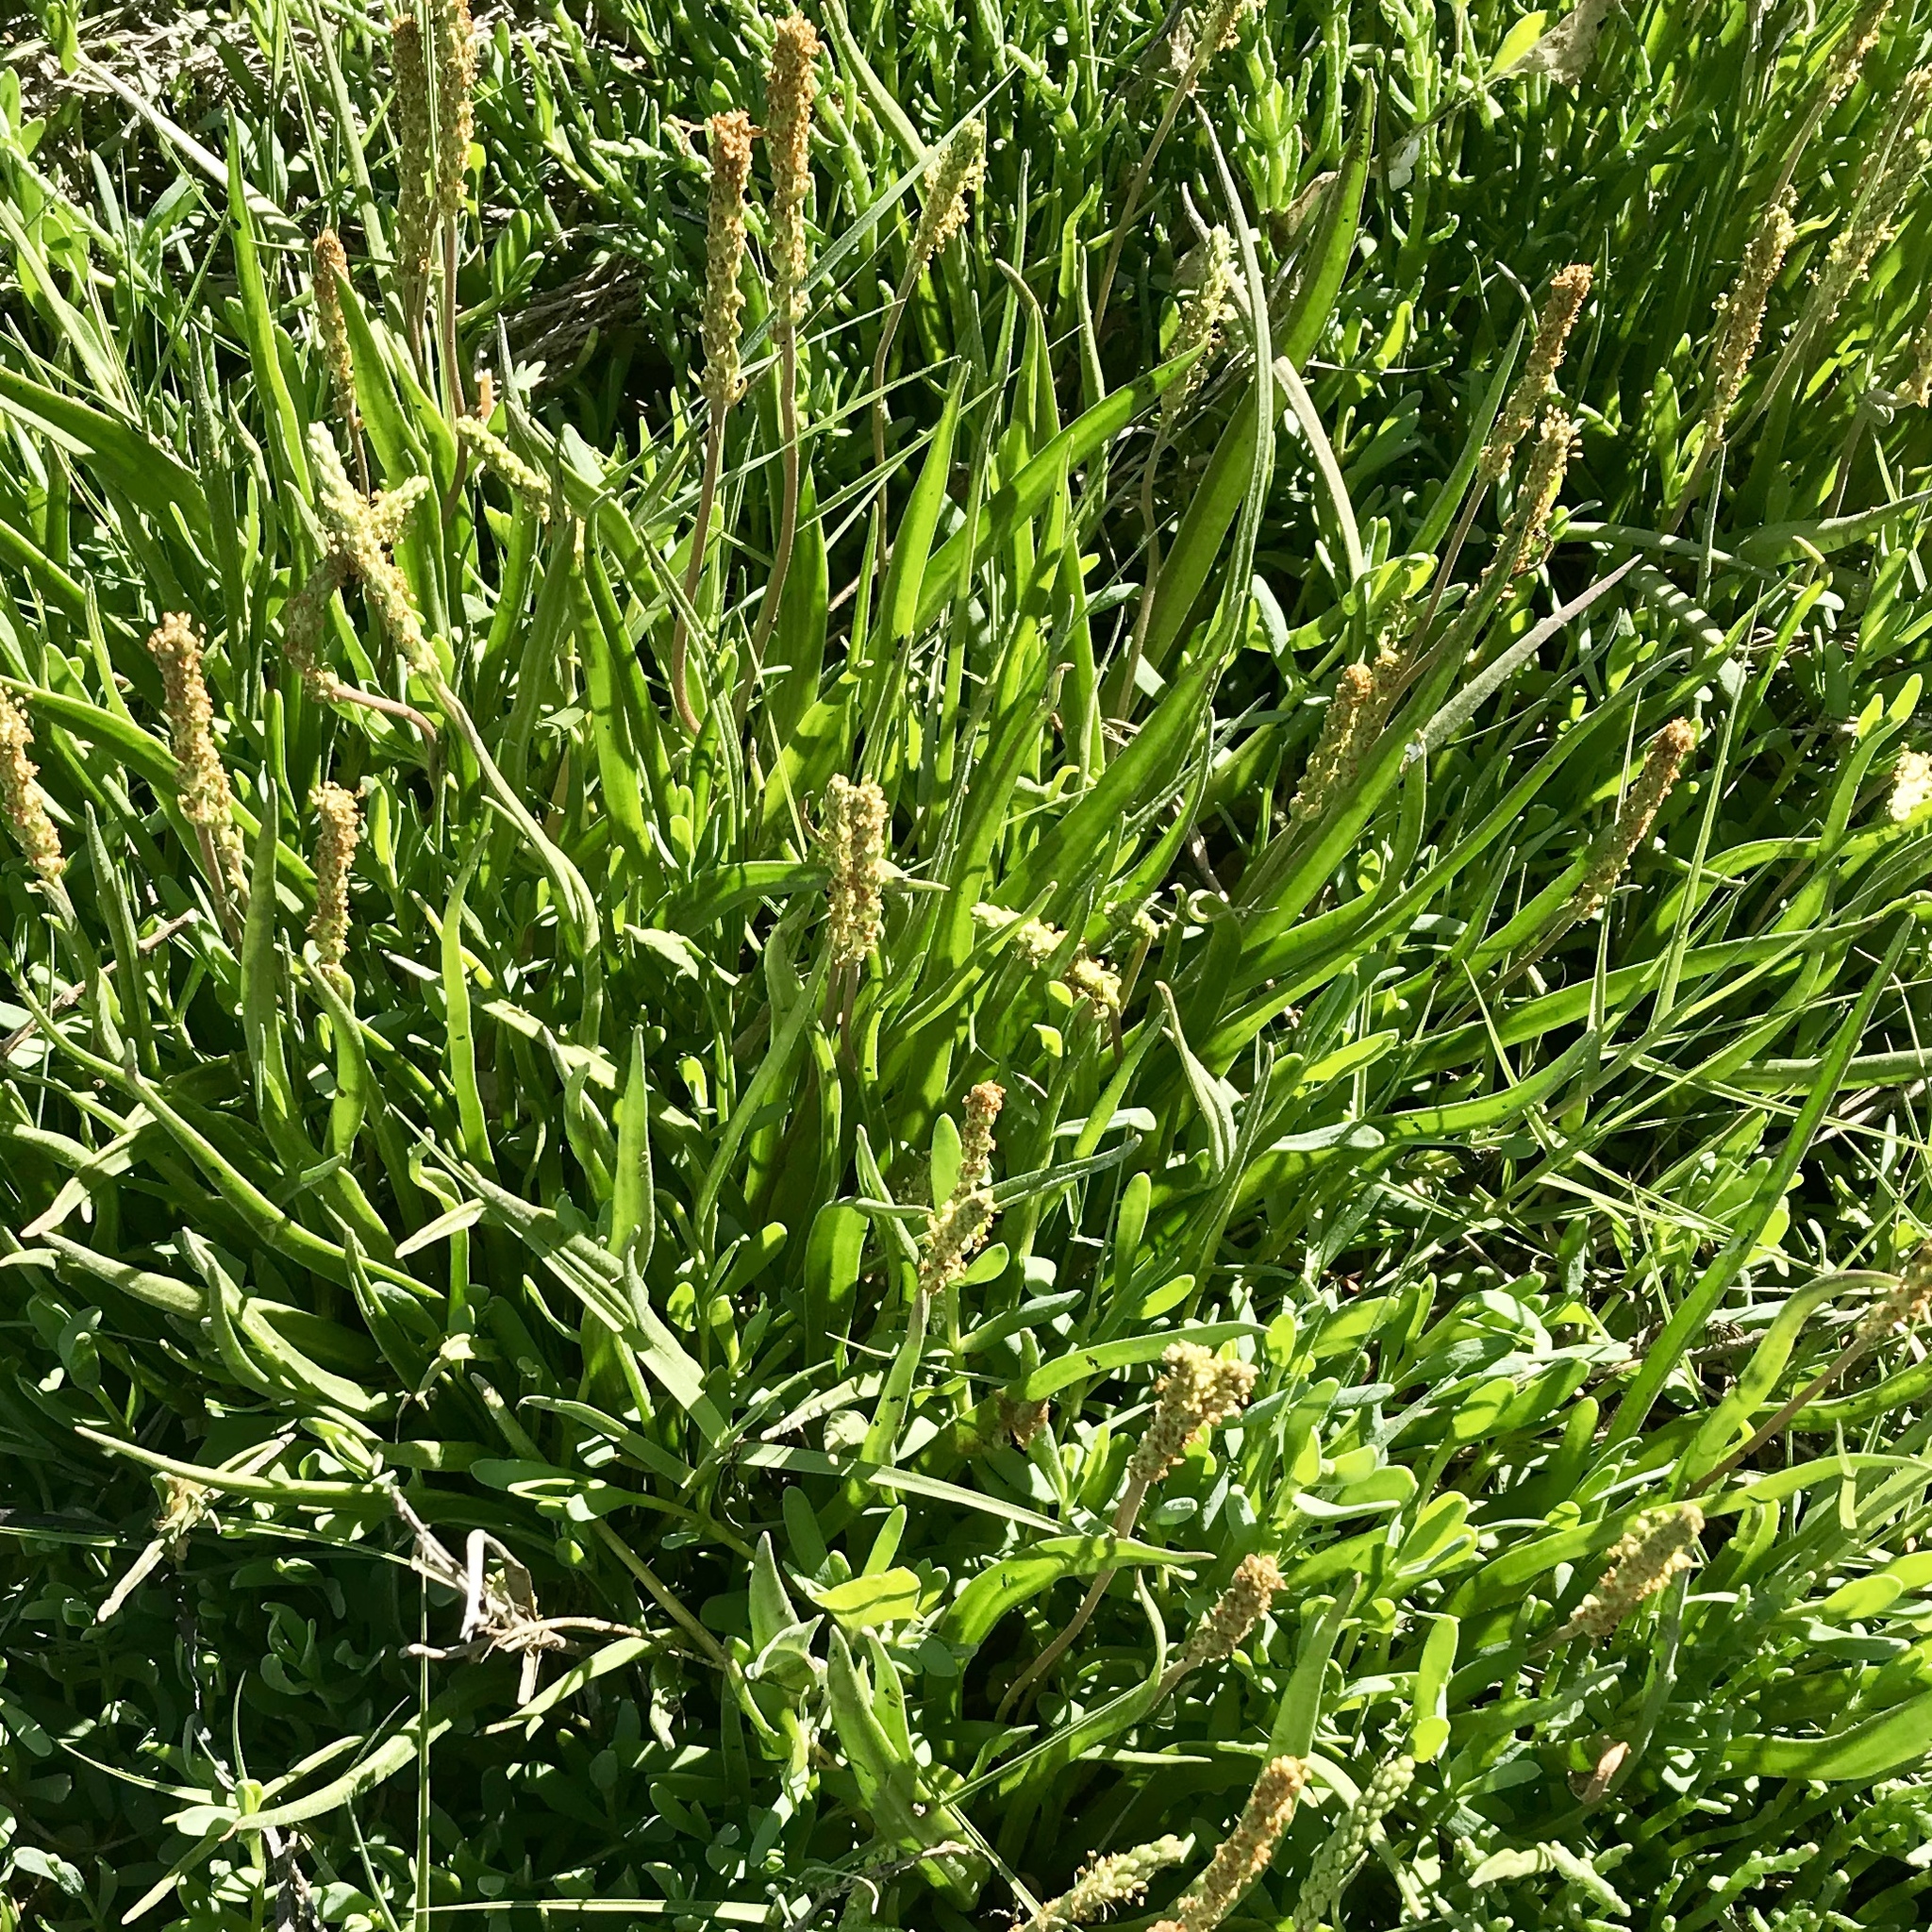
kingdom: Plantae
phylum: Tracheophyta
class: Magnoliopsida
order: Lamiales
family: Plantaginaceae
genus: Plantago
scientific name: Plantago maritima
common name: Sea plantain
